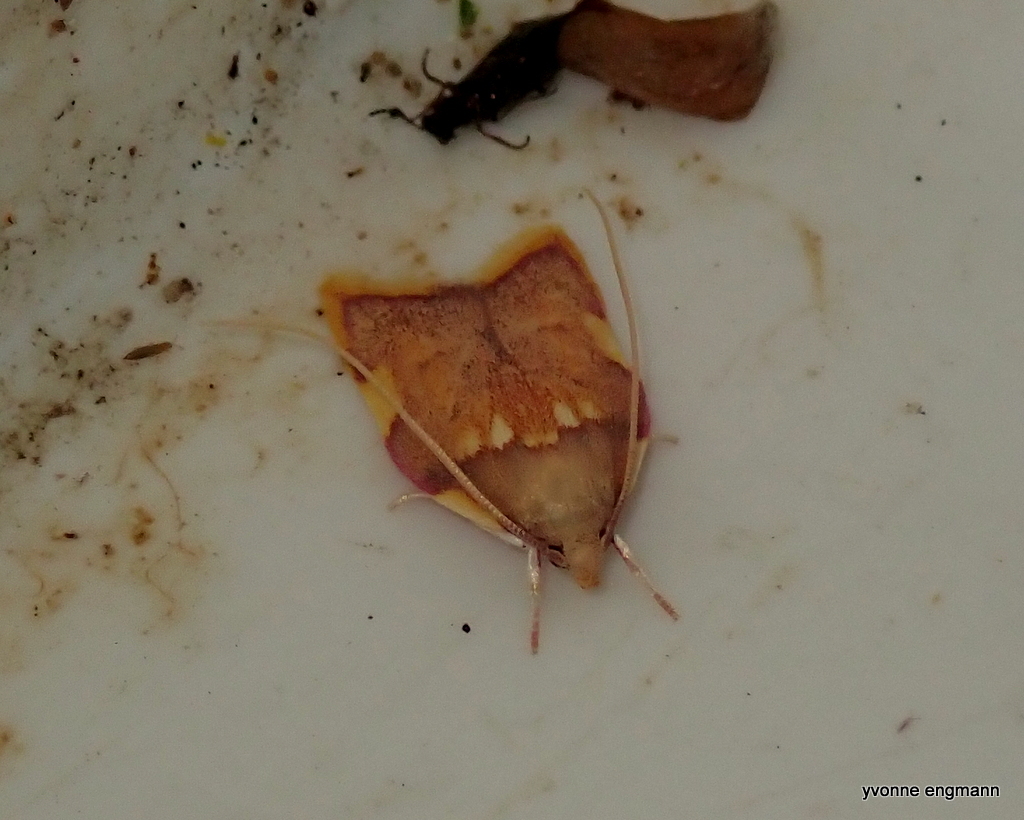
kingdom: Animalia
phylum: Arthropoda
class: Insecta
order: Lepidoptera
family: Peleopodidae
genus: Carcina
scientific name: Carcina quercana
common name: Moth
